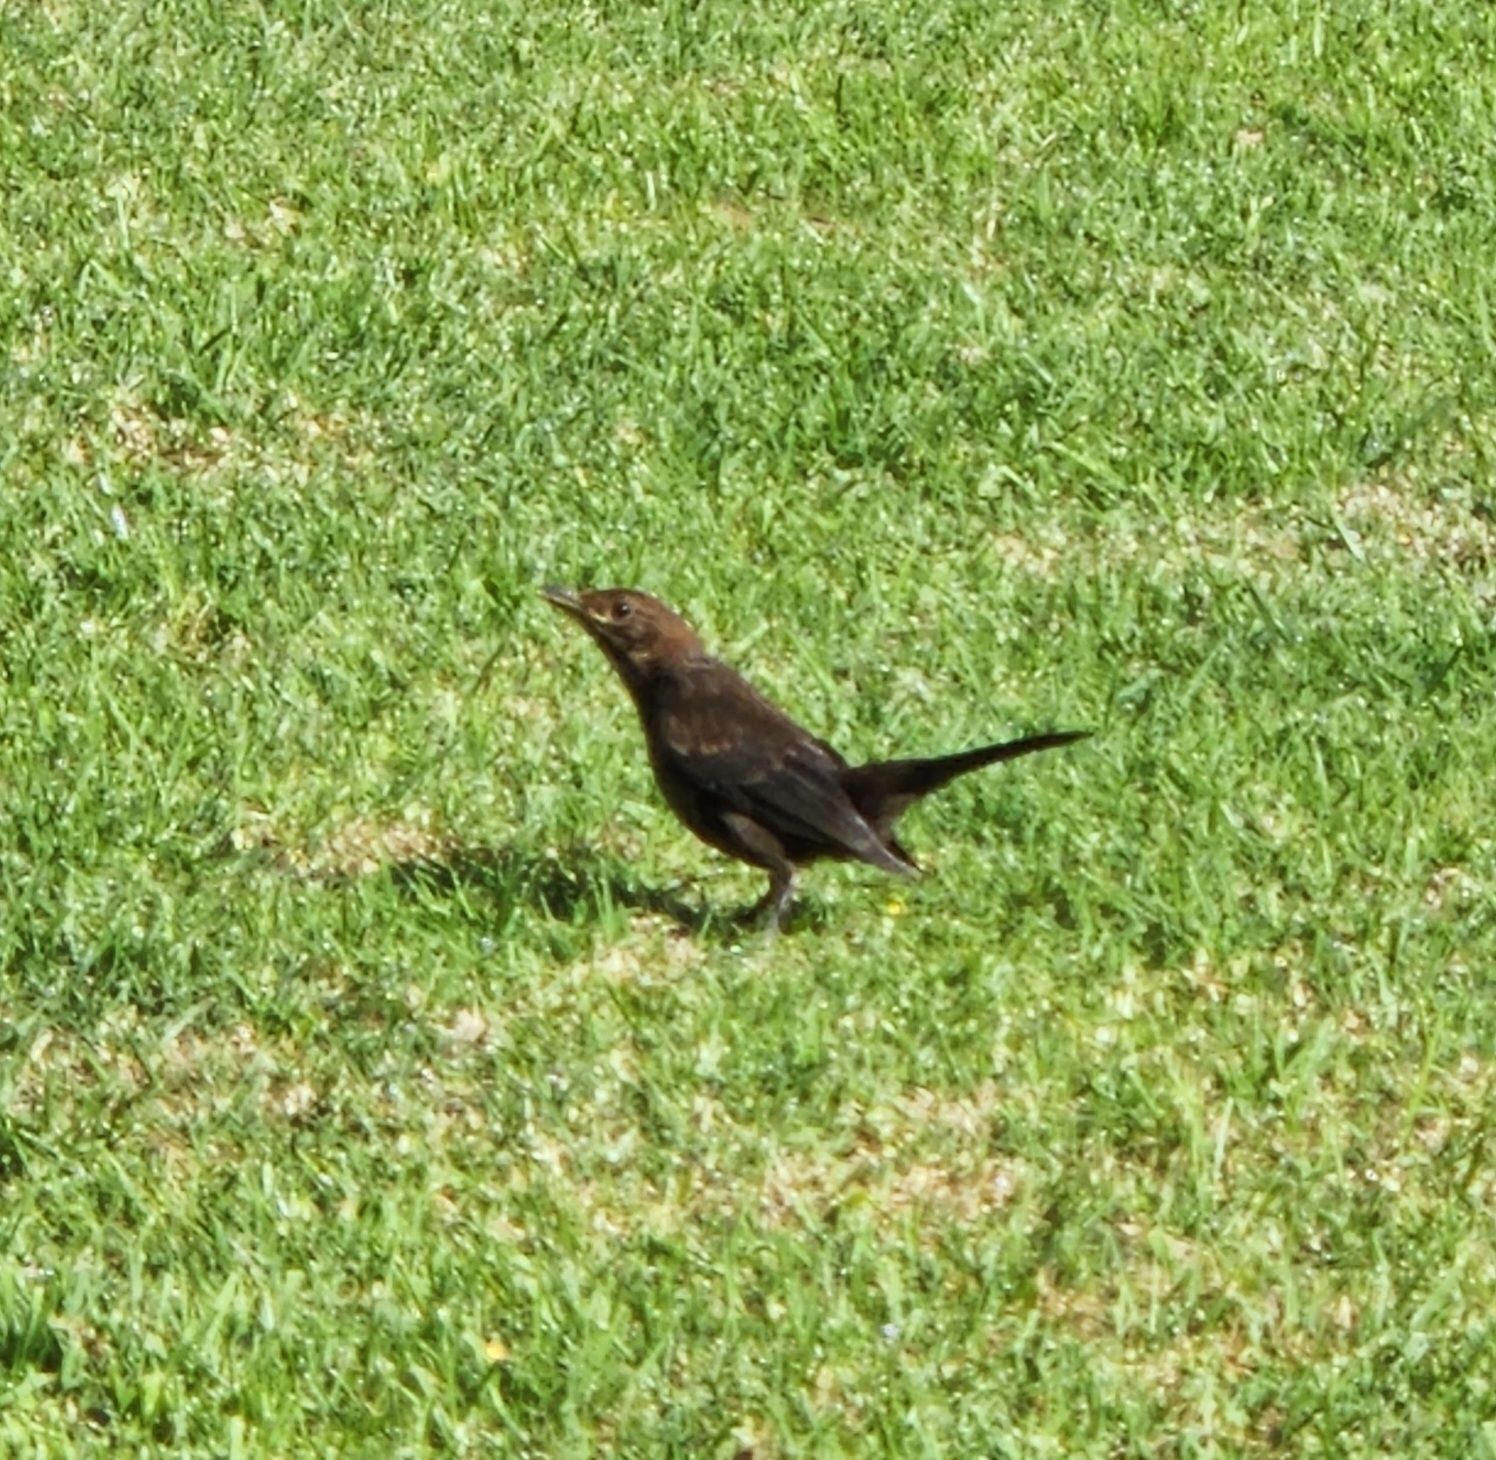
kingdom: Animalia
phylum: Chordata
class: Aves
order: Passeriformes
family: Turdidae
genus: Turdus
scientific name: Turdus merula
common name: Common blackbird
